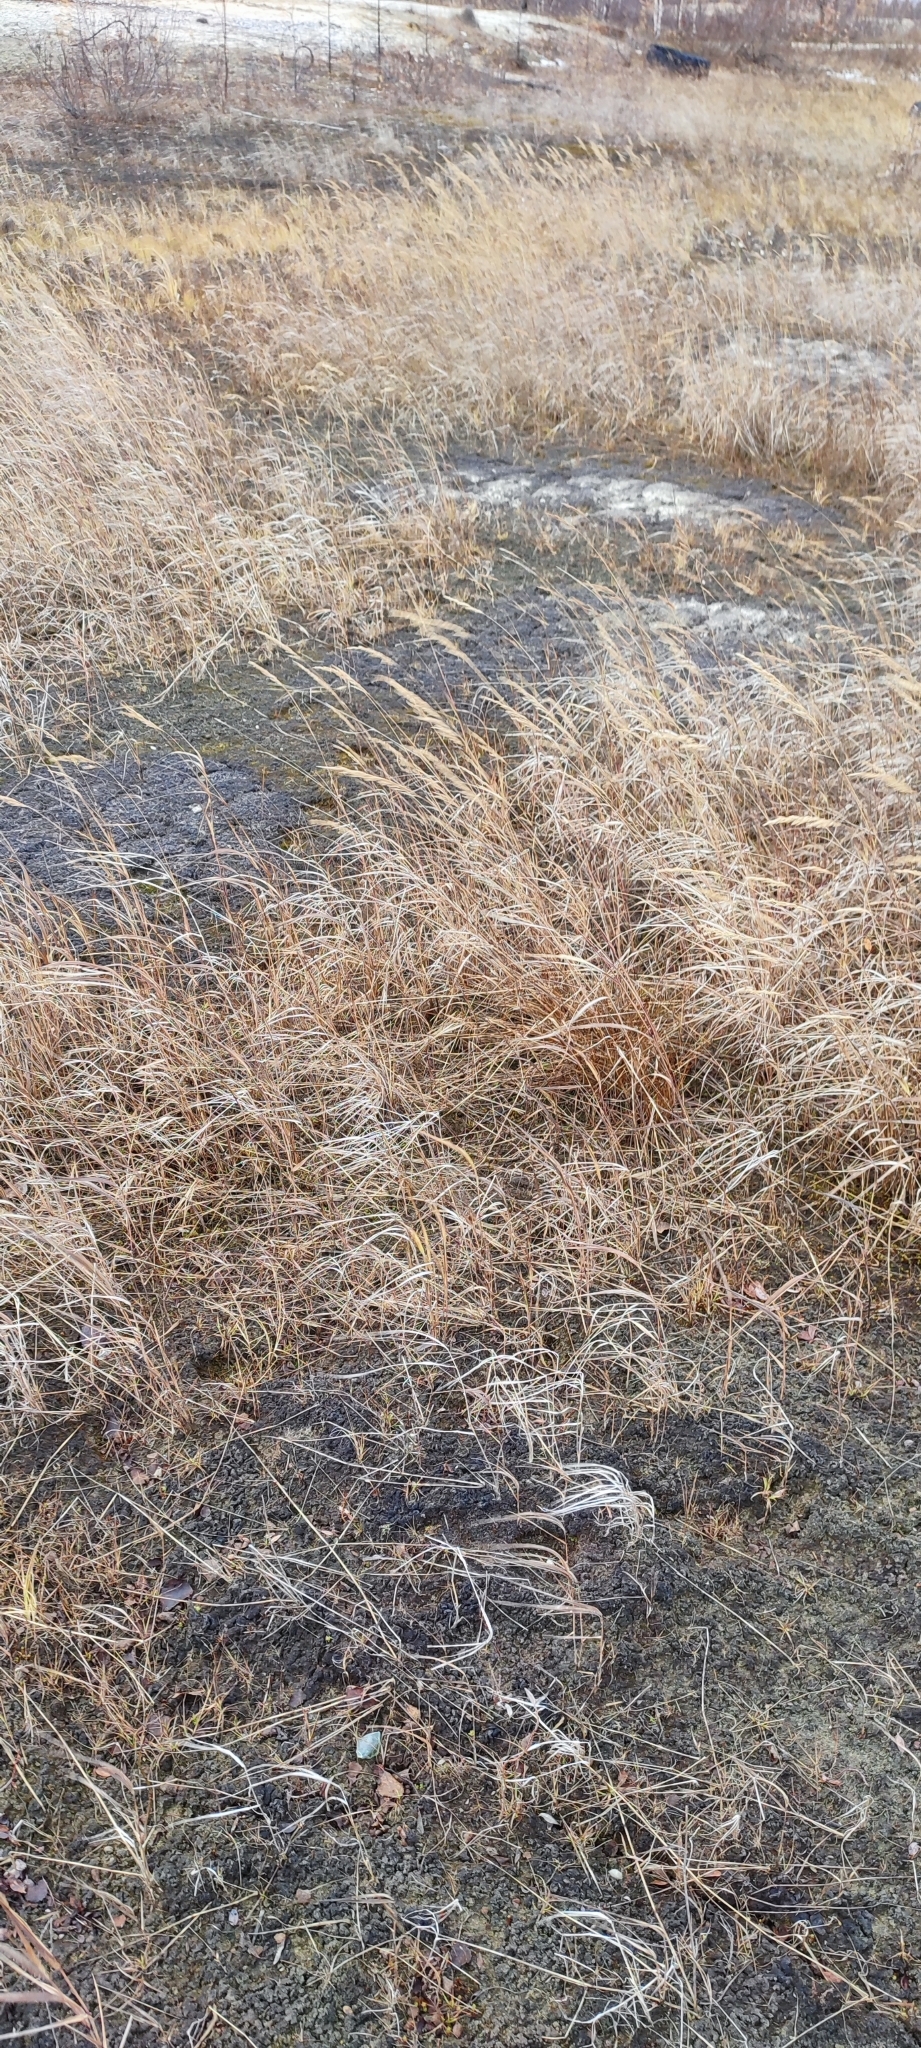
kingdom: Plantae
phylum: Tracheophyta
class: Liliopsida
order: Poales
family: Poaceae
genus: Calamagrostis
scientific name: Calamagrostis purpurea
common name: Scandinavian small-reed
